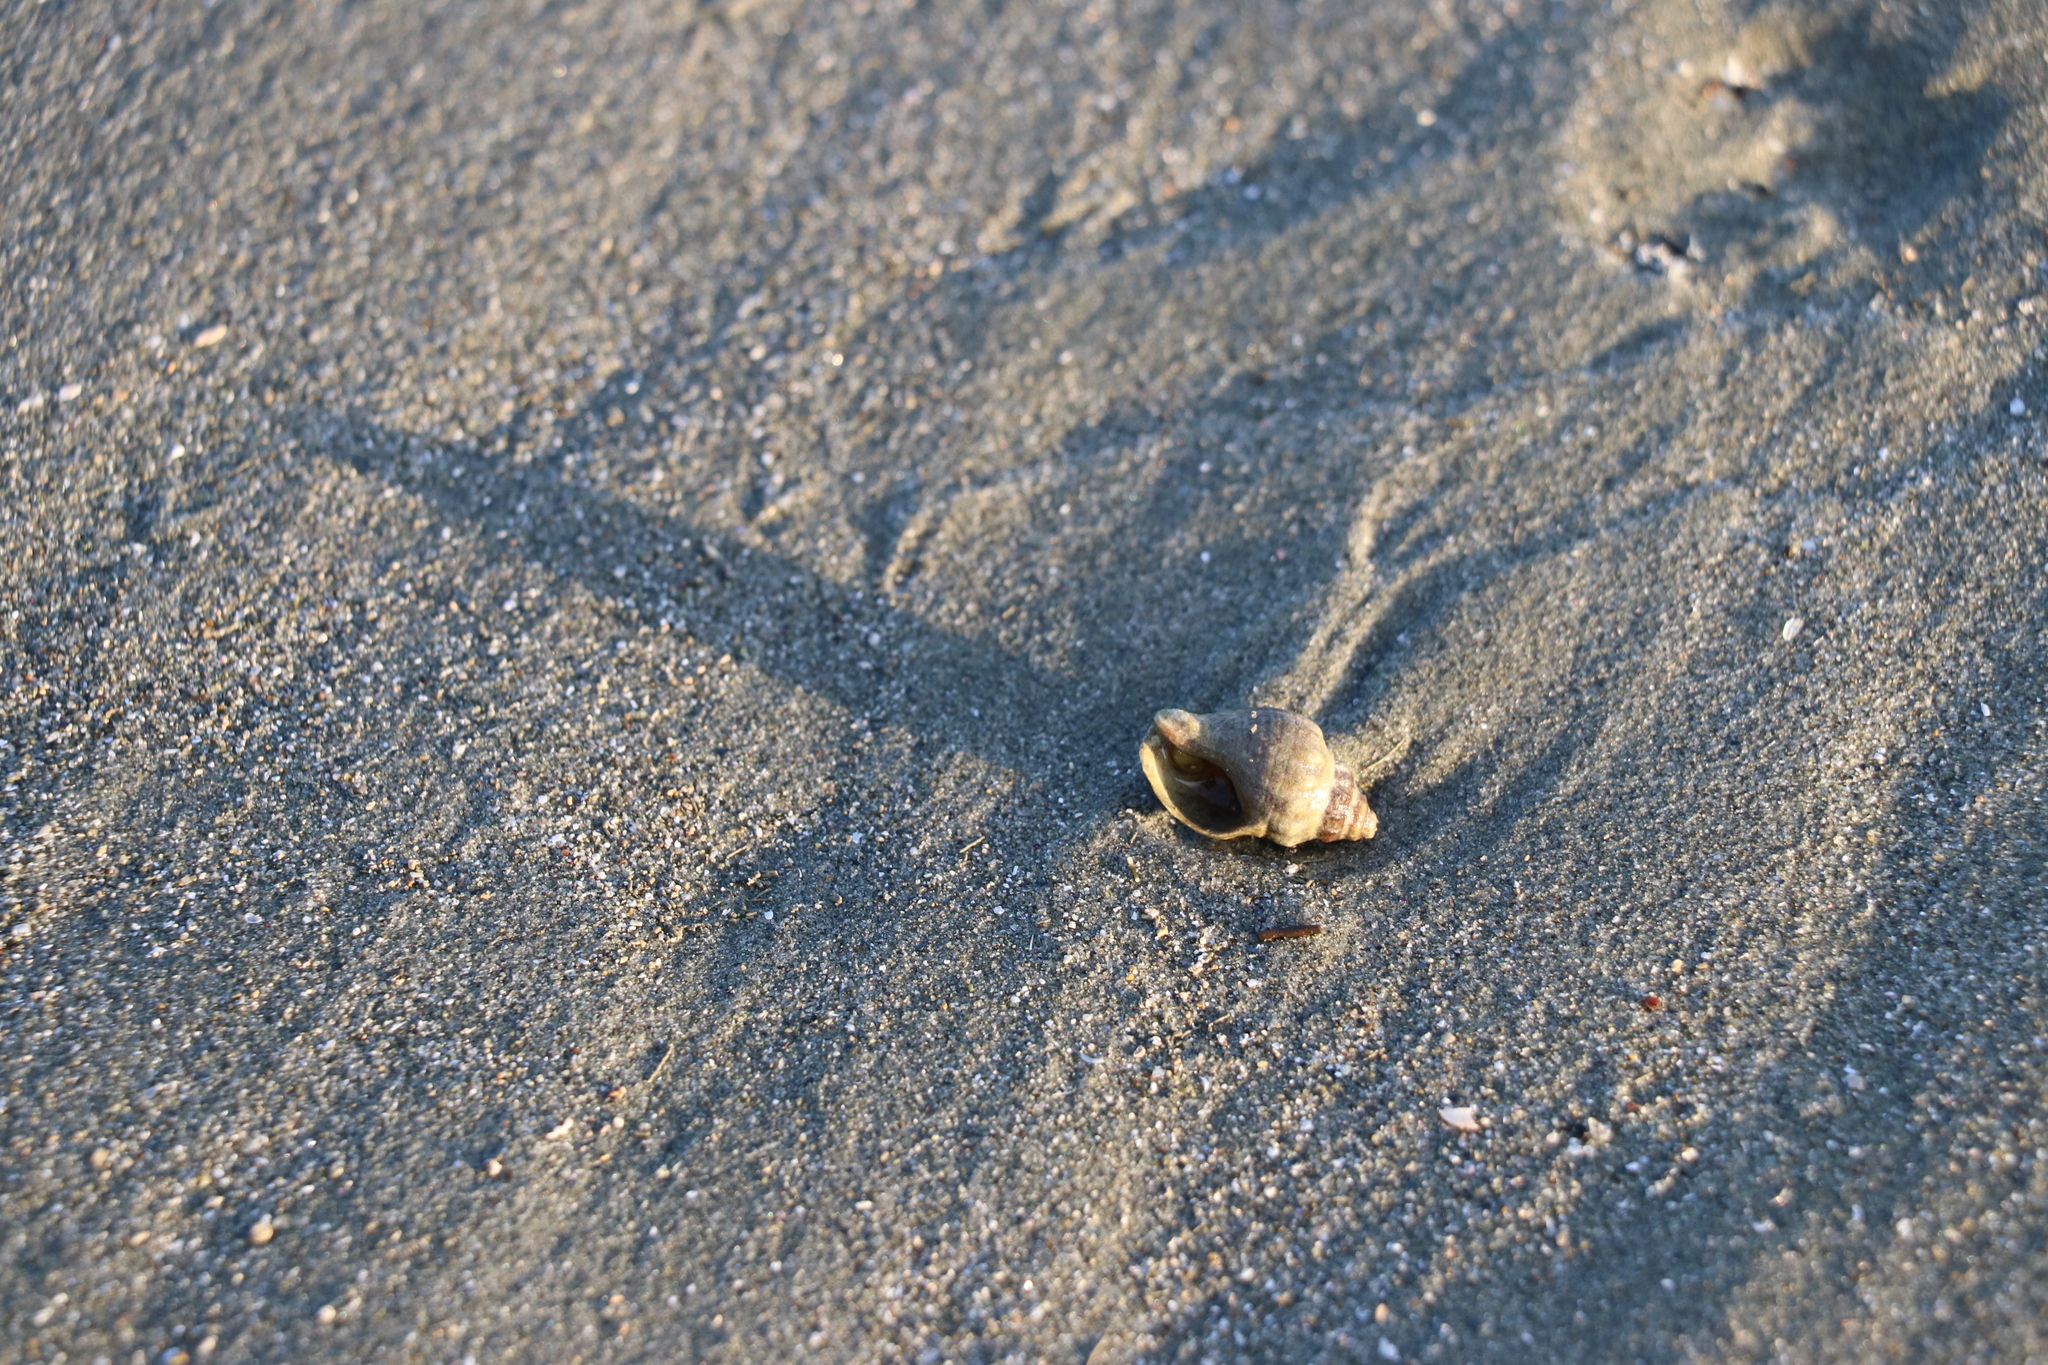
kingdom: Animalia
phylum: Mollusca
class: Gastropoda
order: Neogastropoda
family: Cominellidae
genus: Cominella
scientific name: Cominella glandiformis
